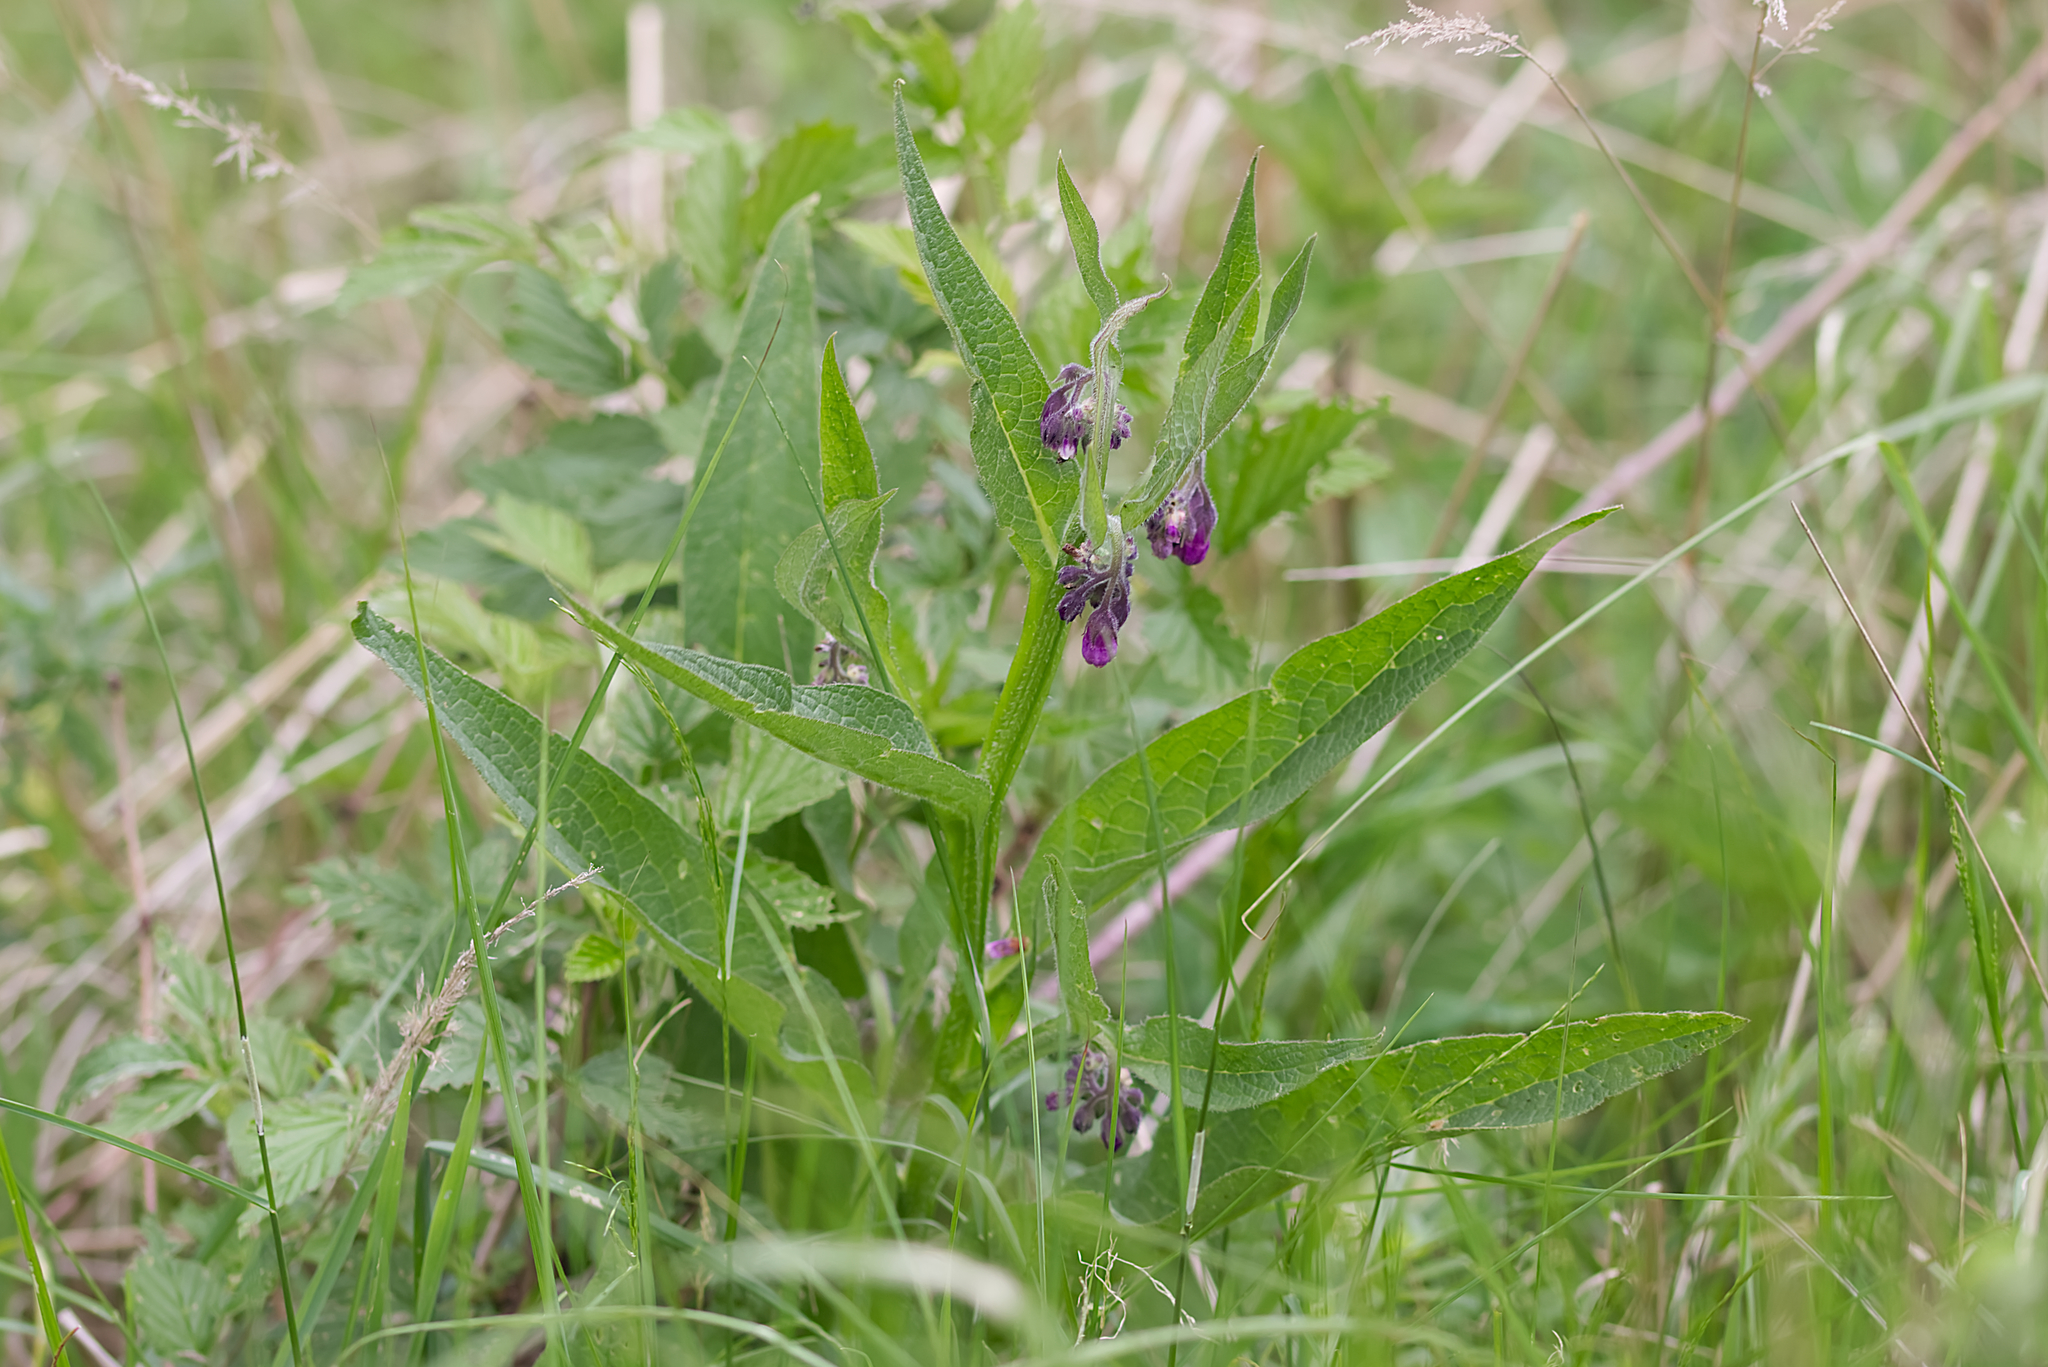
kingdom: Plantae
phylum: Tracheophyta
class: Magnoliopsida
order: Boraginales
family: Boraginaceae
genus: Symphytum
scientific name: Symphytum officinale
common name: Common comfrey
